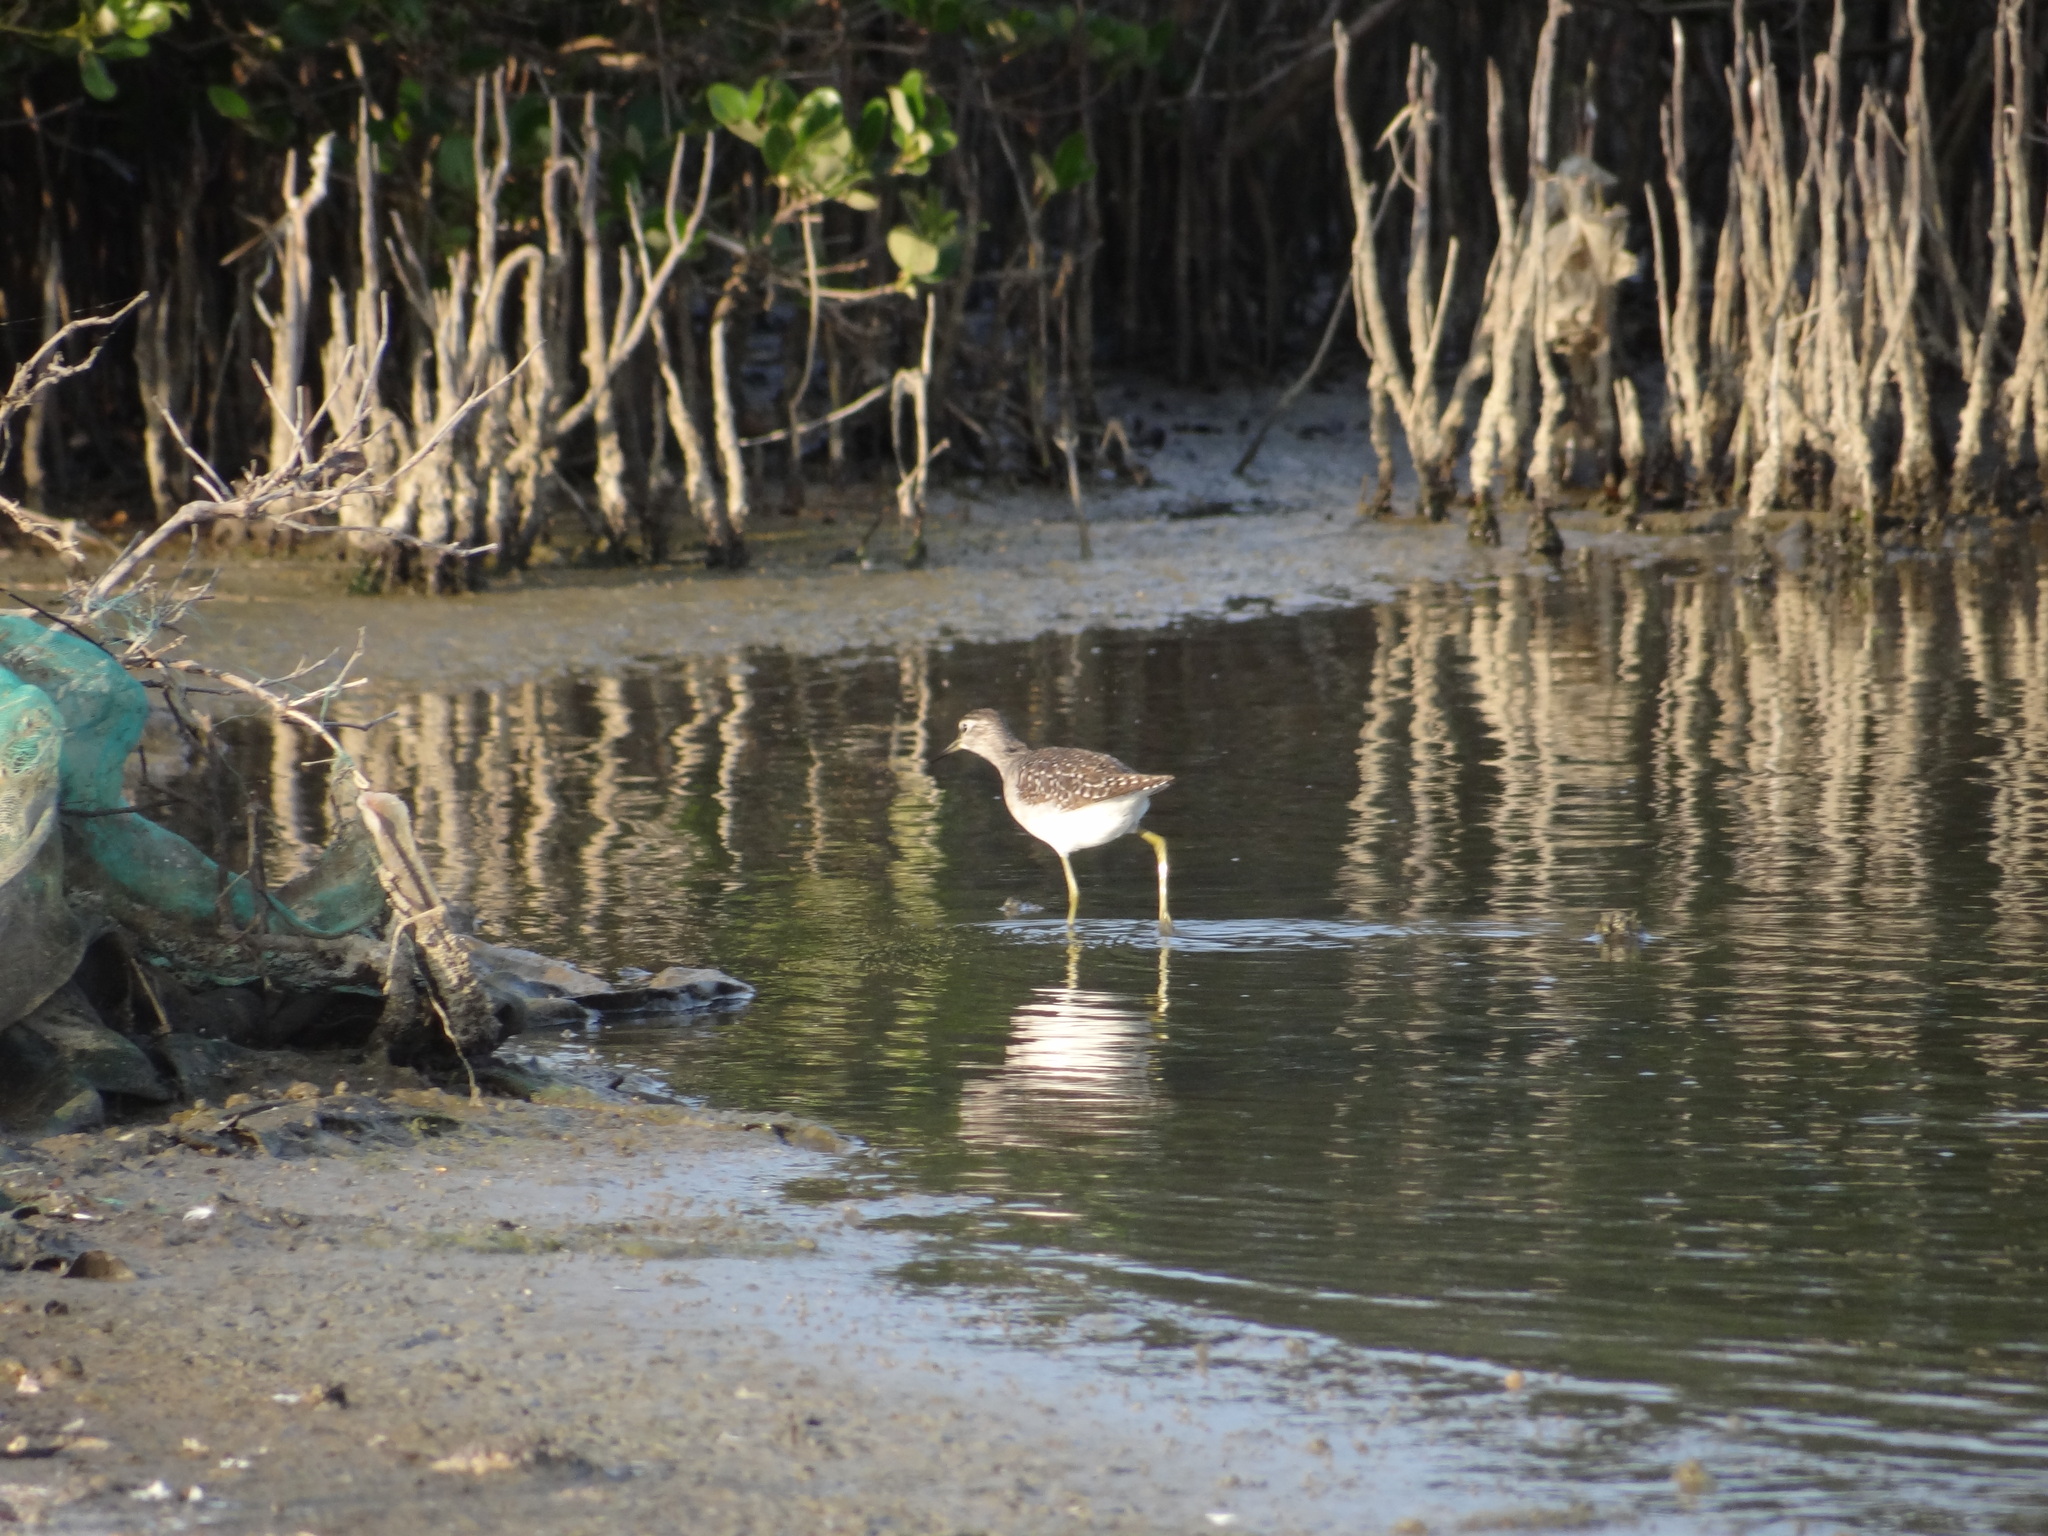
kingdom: Animalia
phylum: Chordata
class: Aves
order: Charadriiformes
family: Scolopacidae
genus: Tringa
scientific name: Tringa glareola
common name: Wood sandpiper
